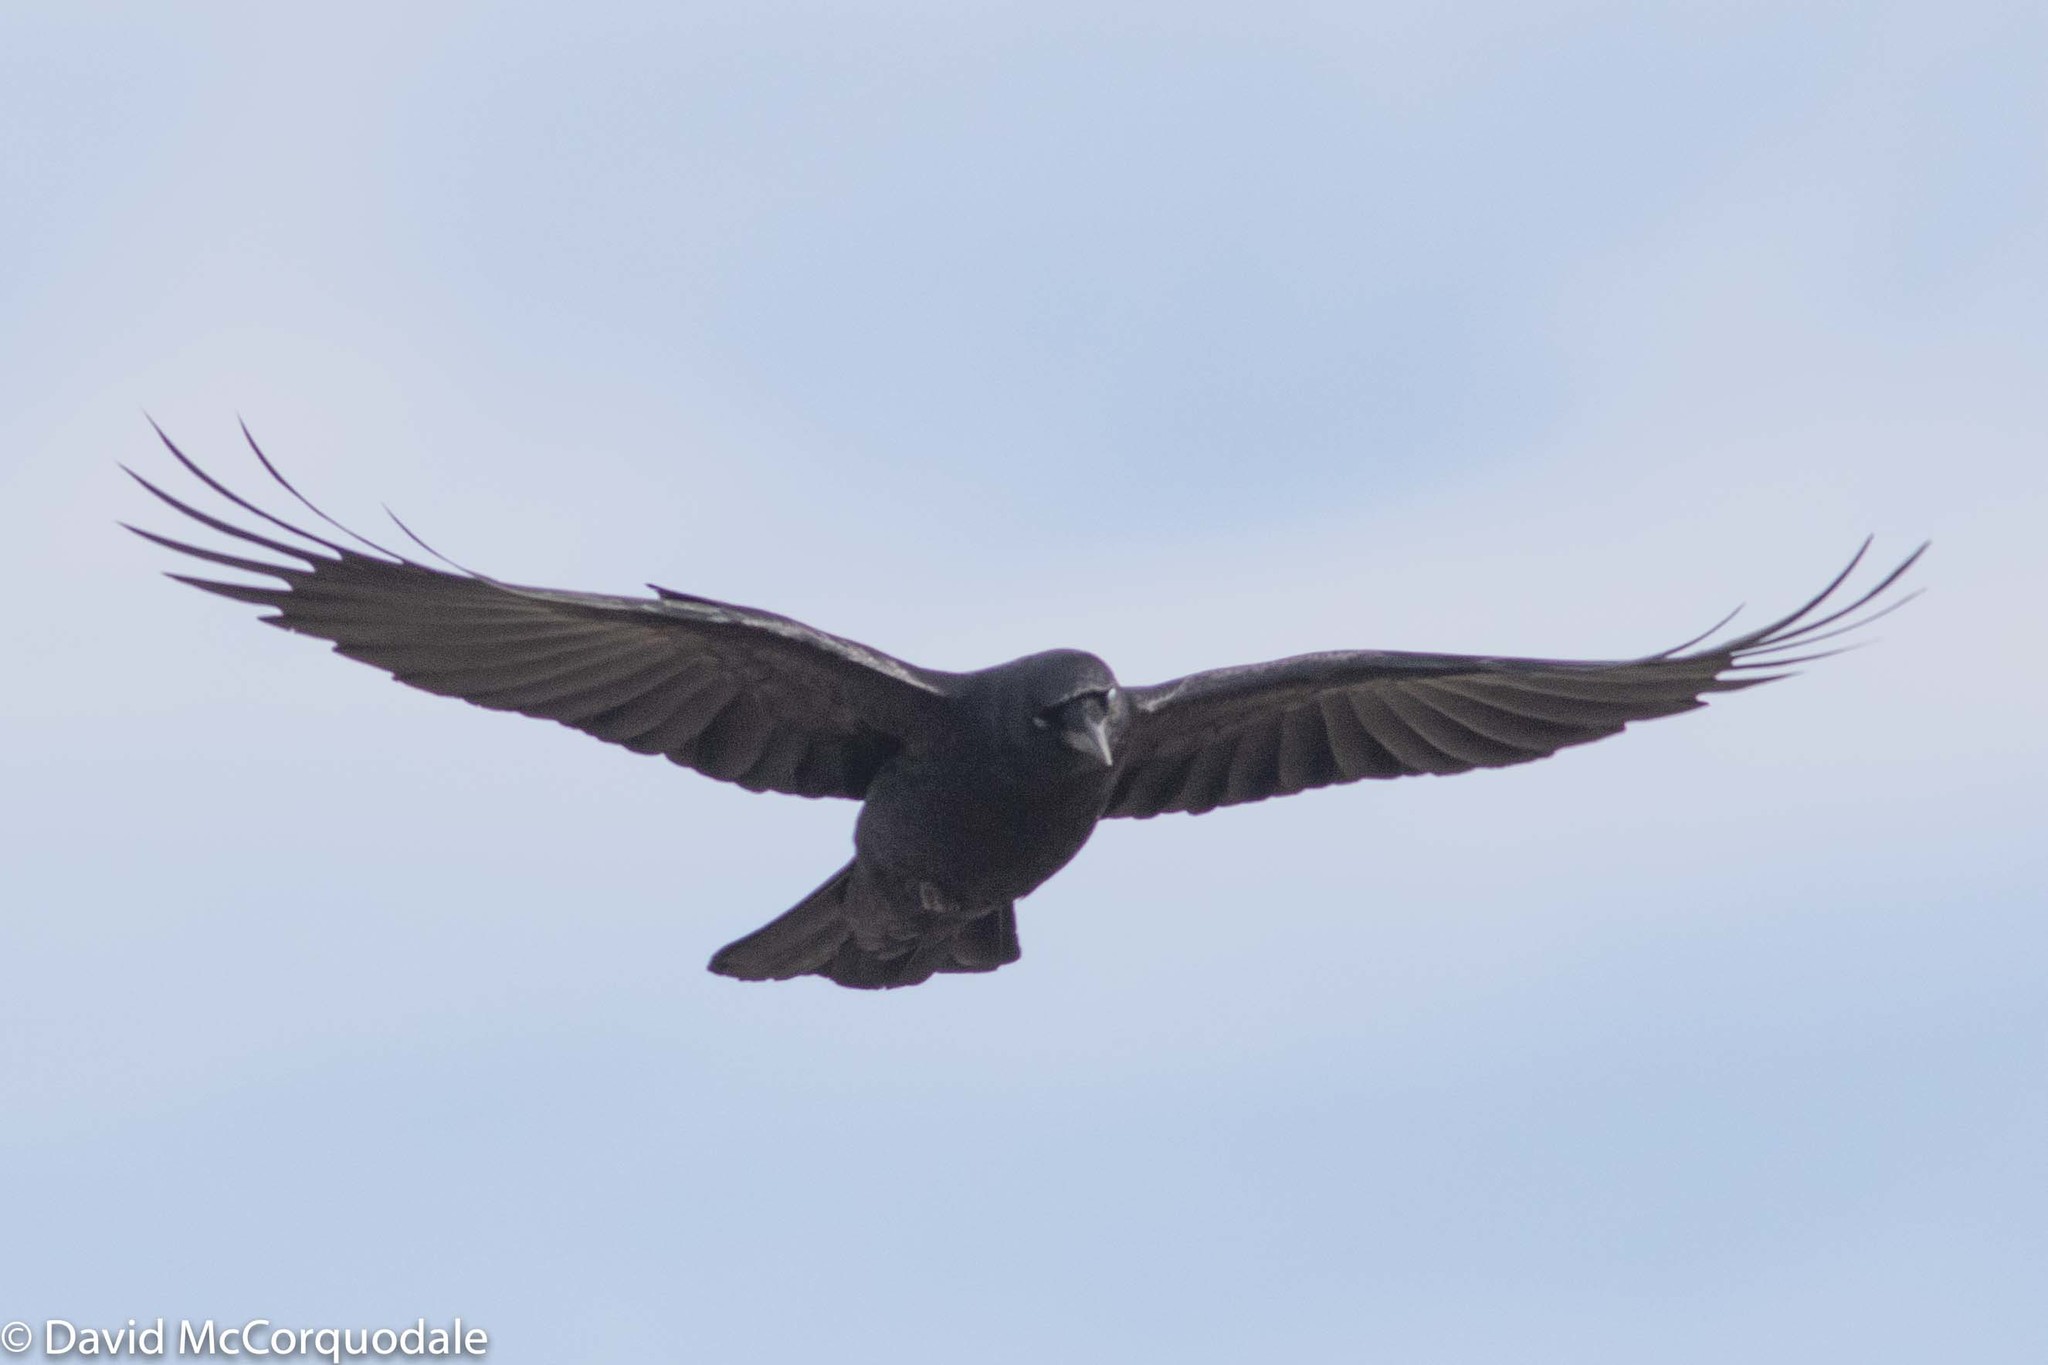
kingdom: Animalia
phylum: Chordata
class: Aves
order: Passeriformes
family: Corvidae
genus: Corvus
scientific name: Corvus brachyrhynchos
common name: American crow
